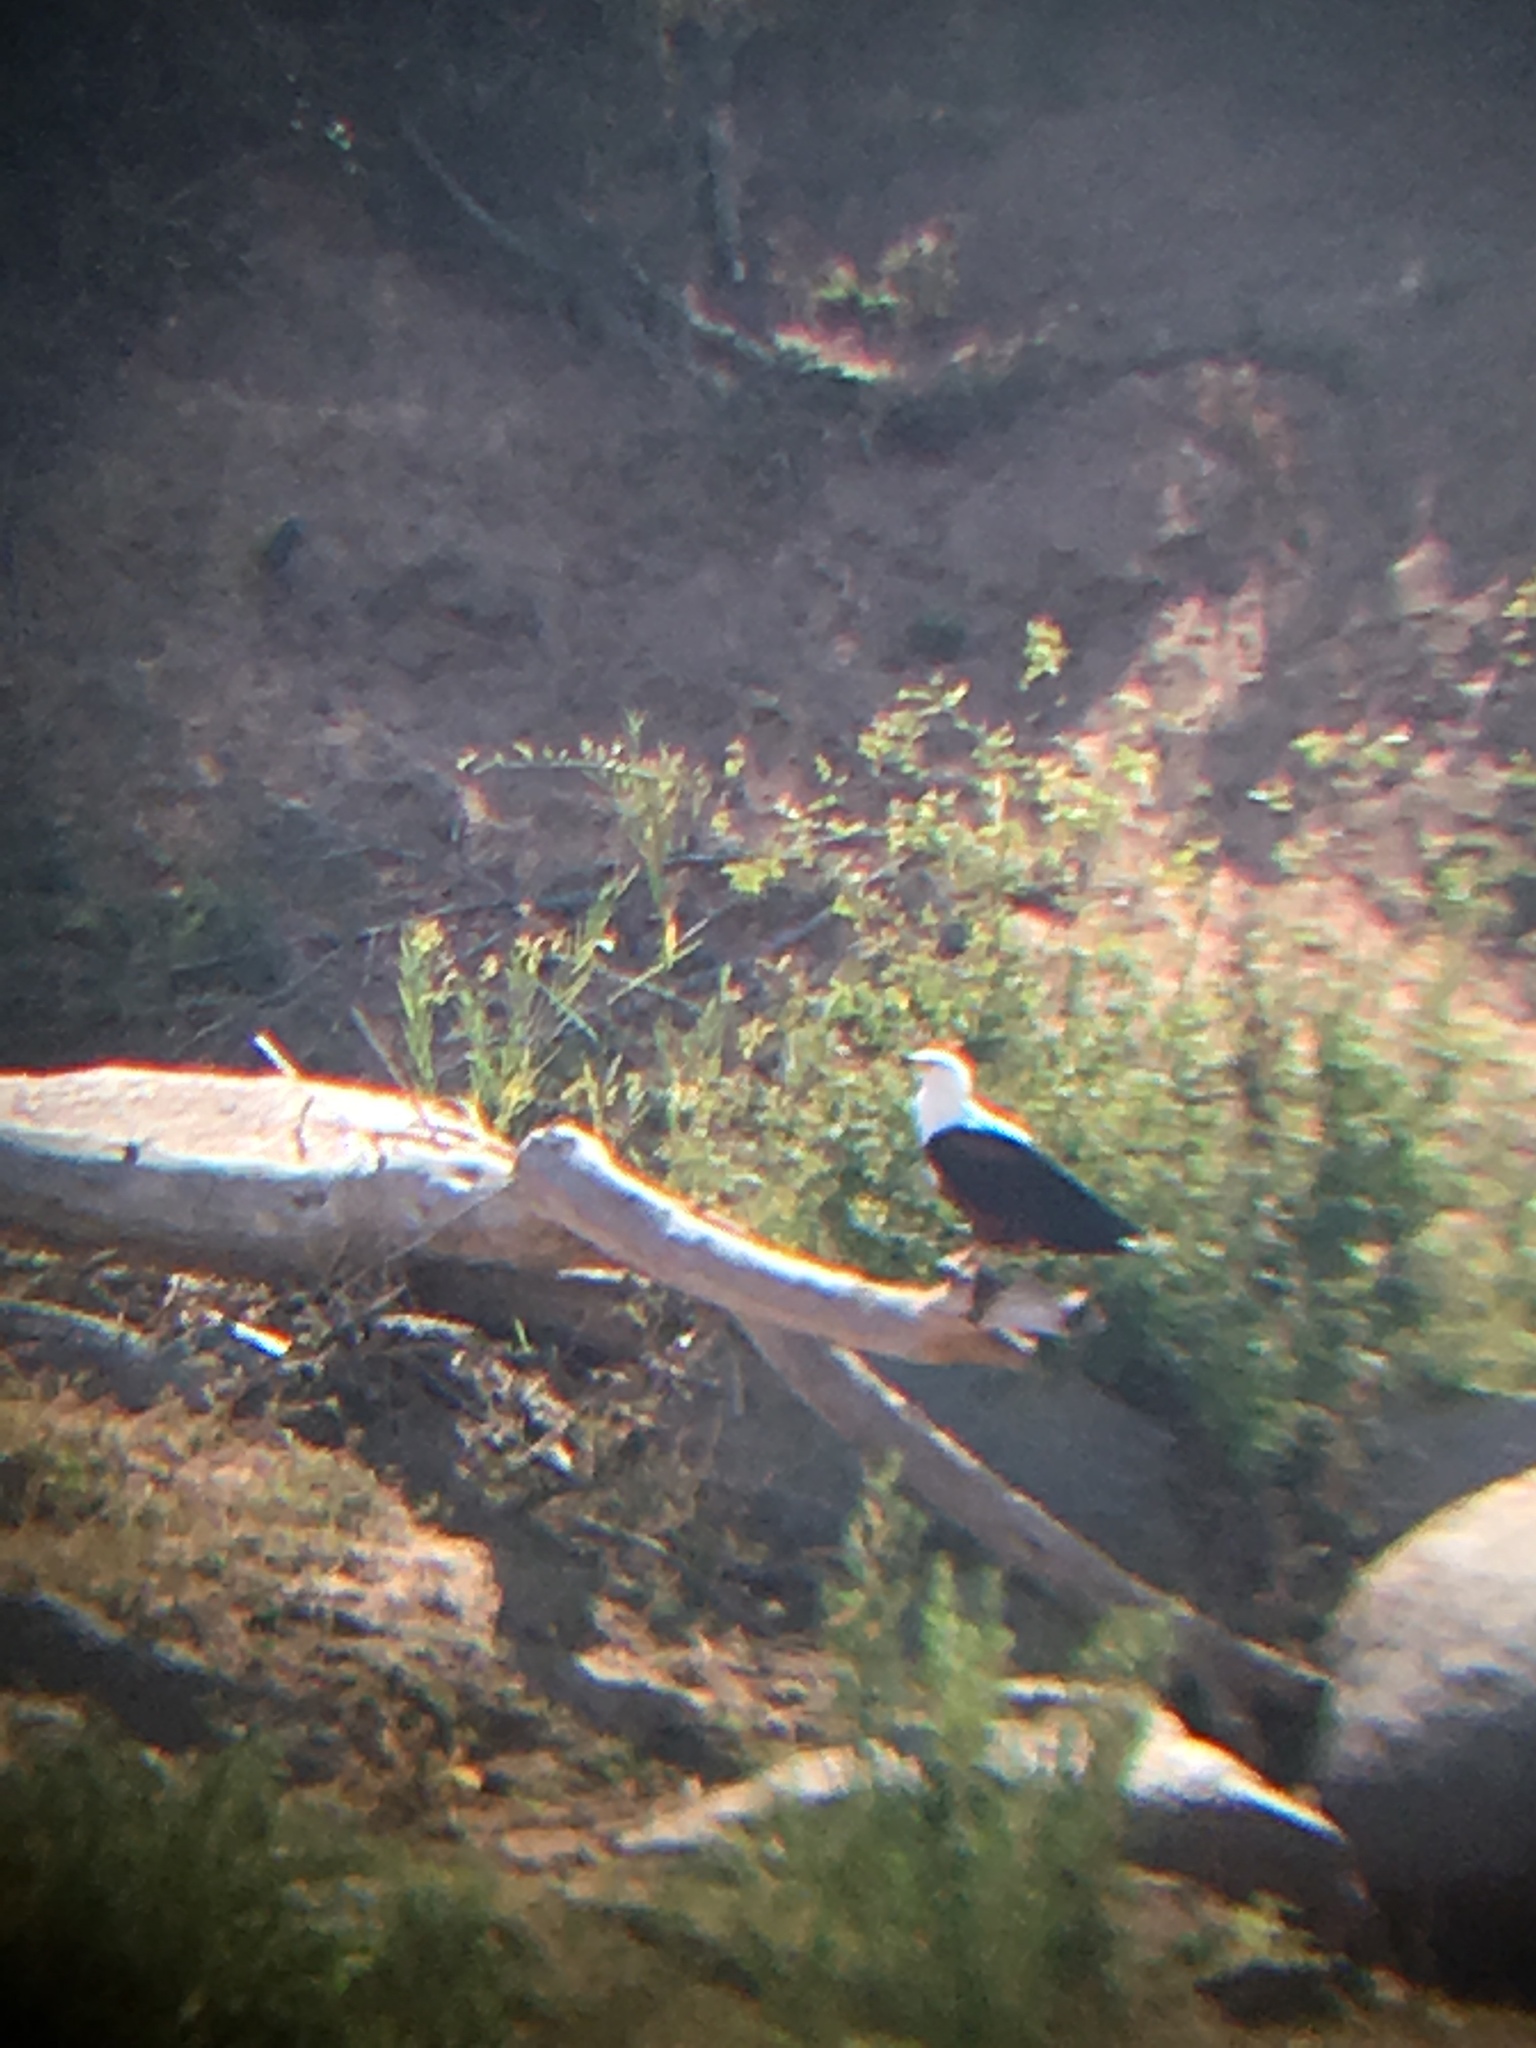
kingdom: Animalia
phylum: Chordata
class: Aves
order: Accipitriformes
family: Accipitridae
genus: Haliaeetus
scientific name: Haliaeetus vocifer
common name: African fish eagle
